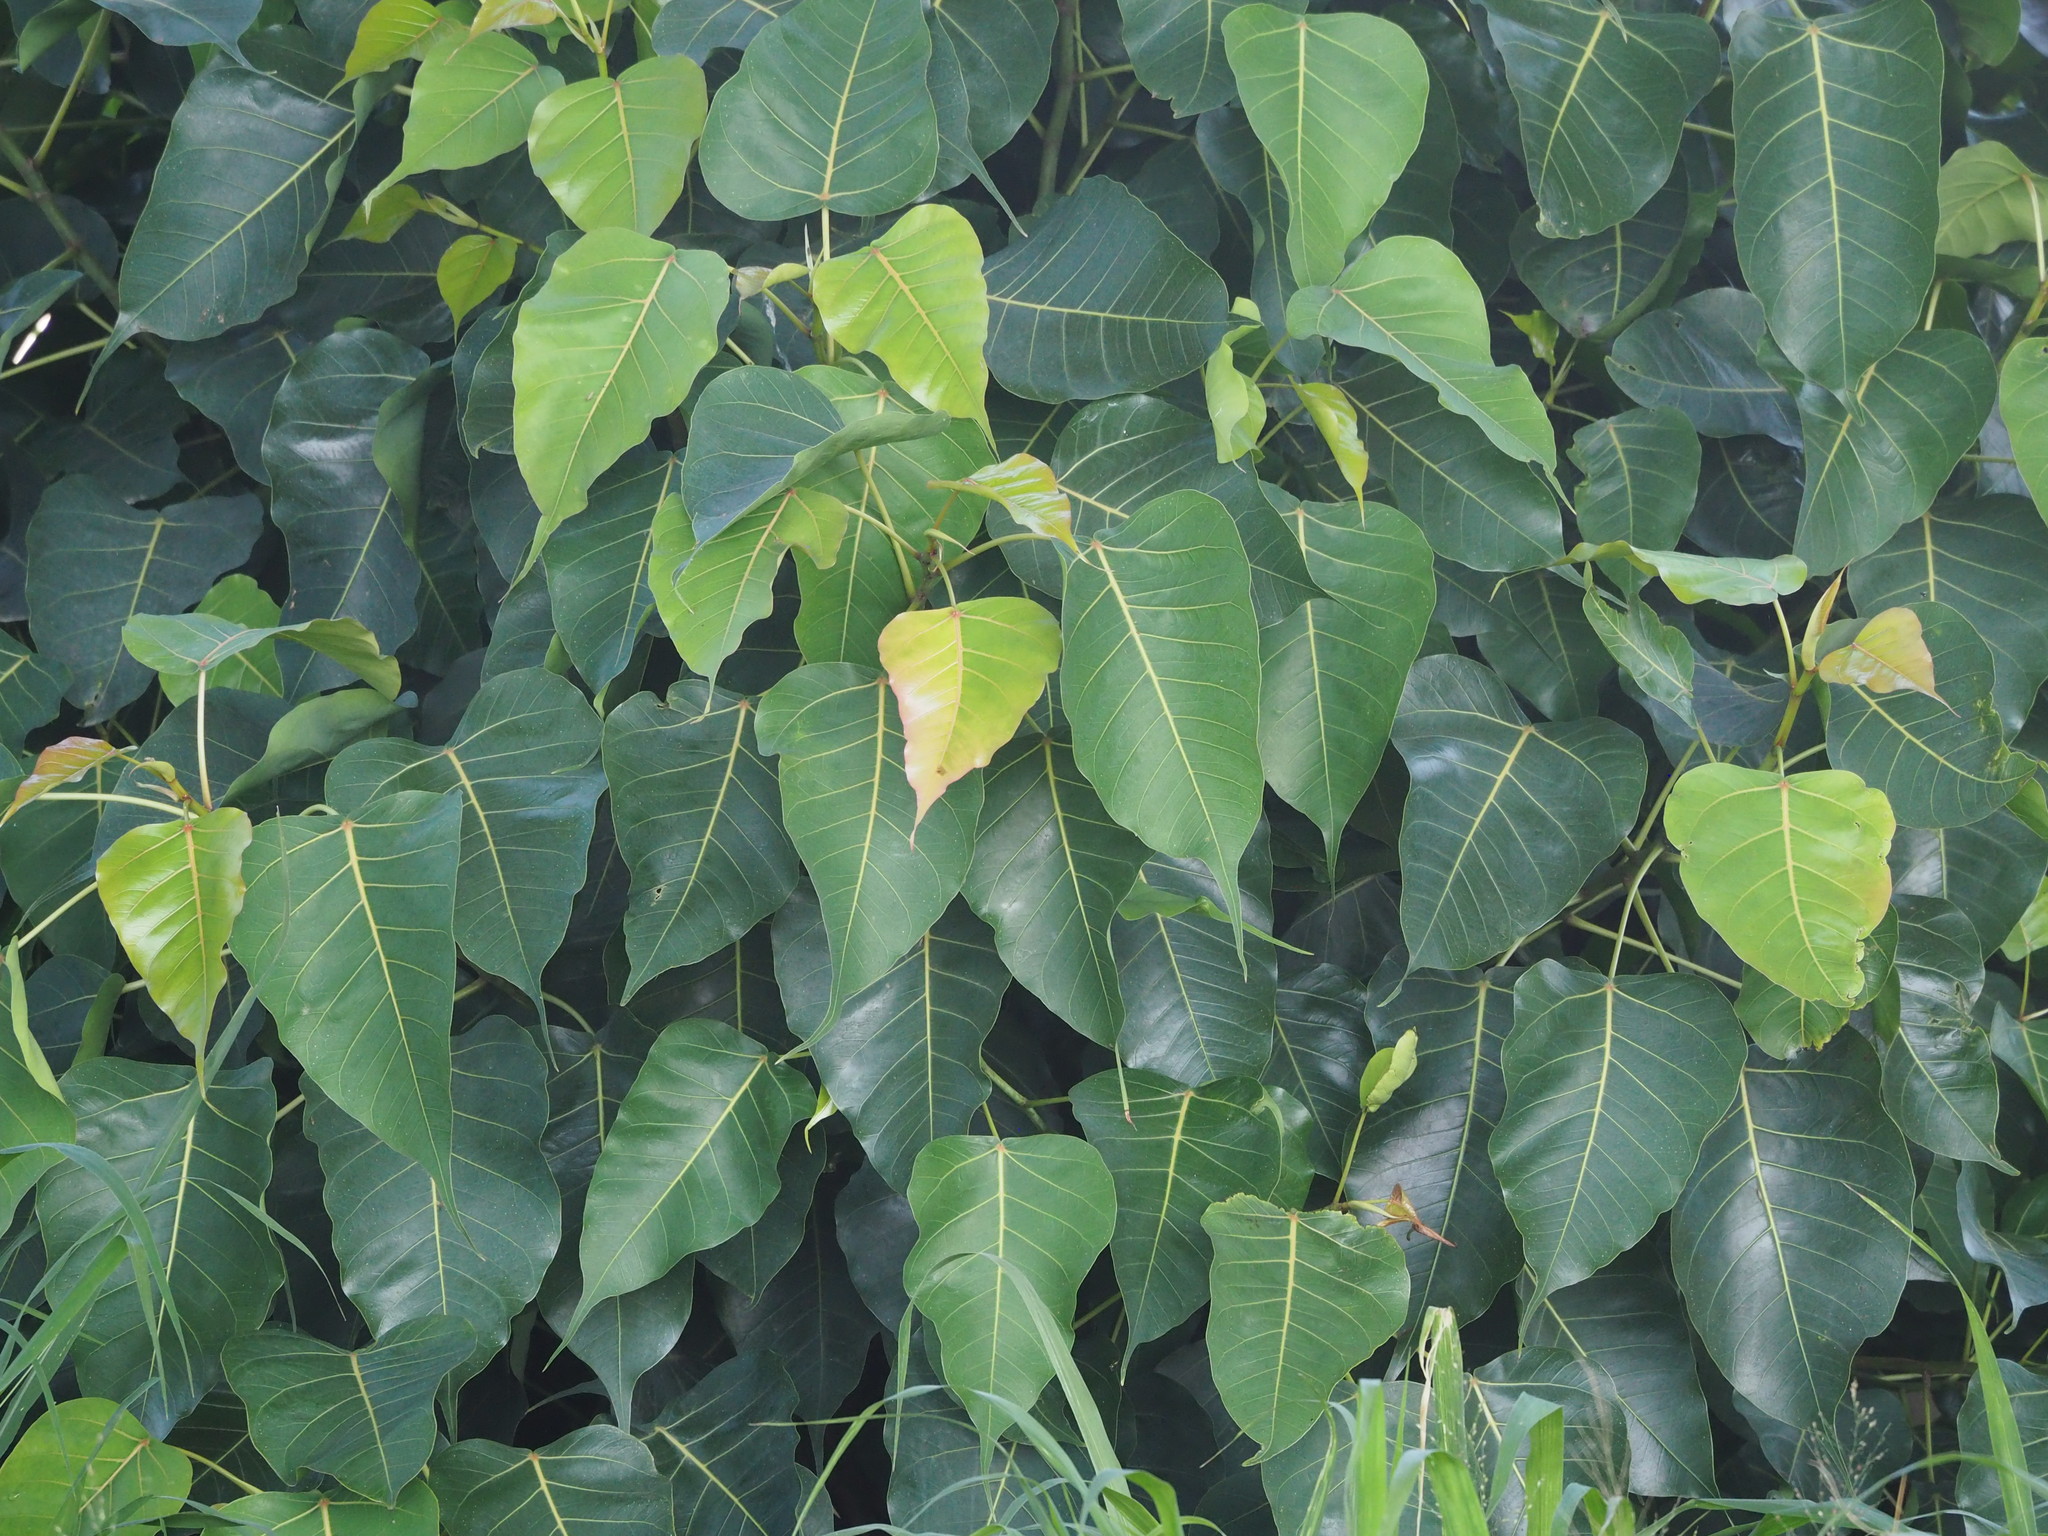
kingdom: Plantae
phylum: Tracheophyta
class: Magnoliopsida
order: Rosales
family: Moraceae
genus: Ficus
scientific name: Ficus religiosa
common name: Bodhi tree
